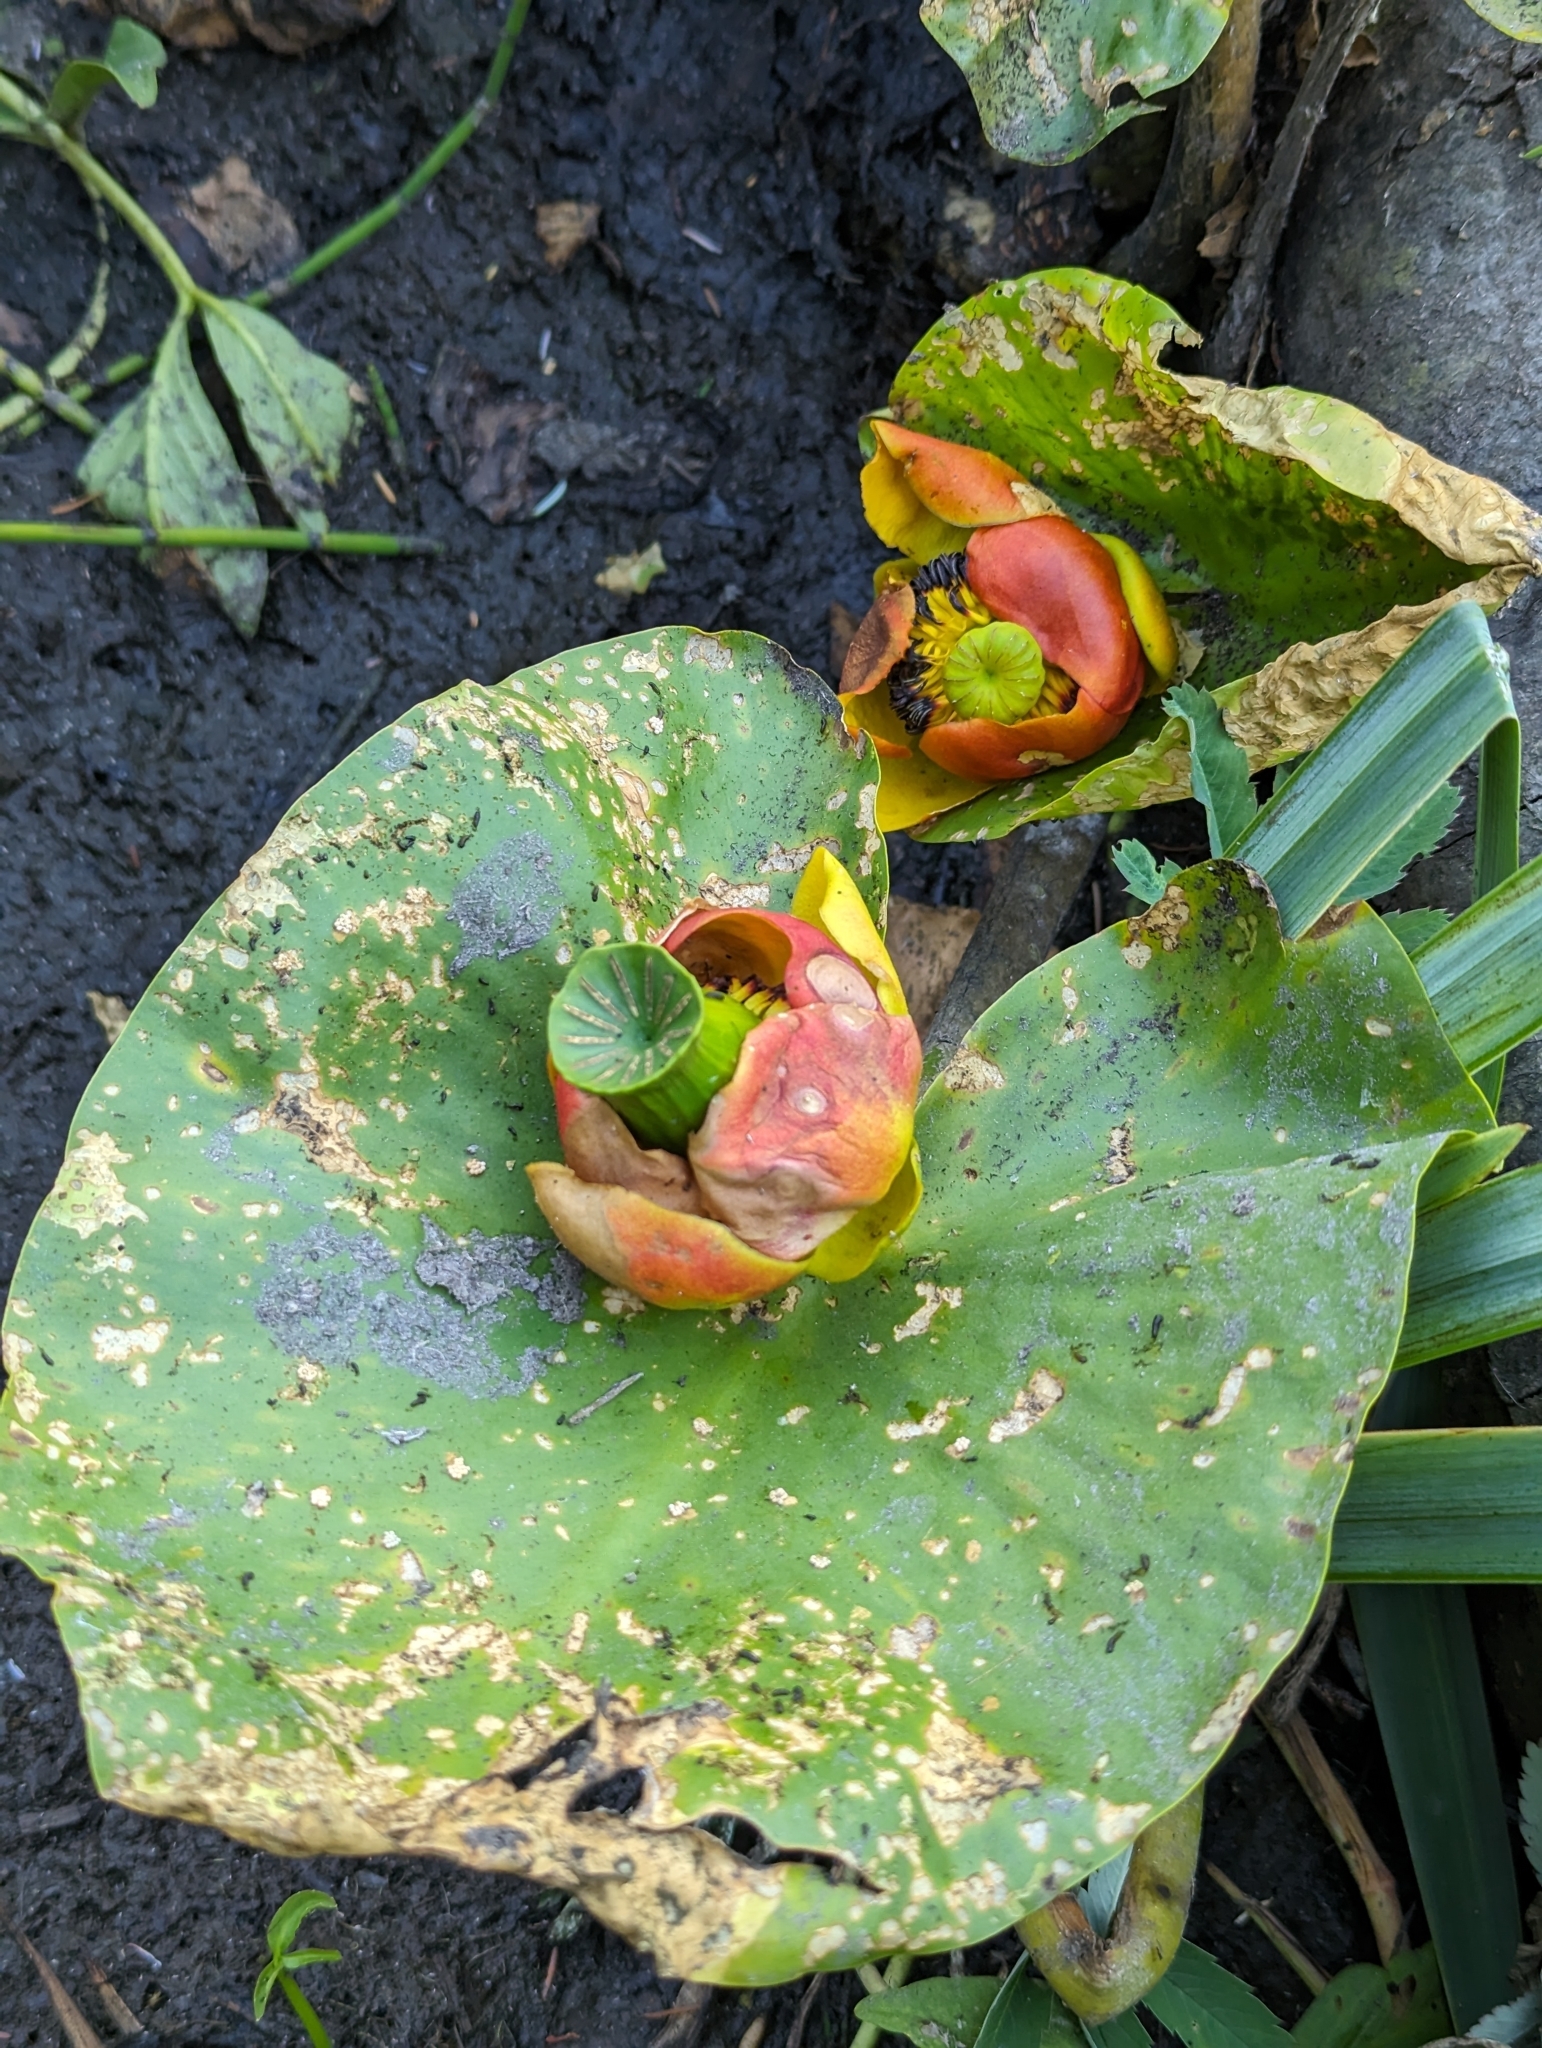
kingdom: Plantae
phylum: Tracheophyta
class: Magnoliopsida
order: Nymphaeales
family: Nymphaeaceae
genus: Nuphar
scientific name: Nuphar polysepala
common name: Rocky mountain cow-lily
